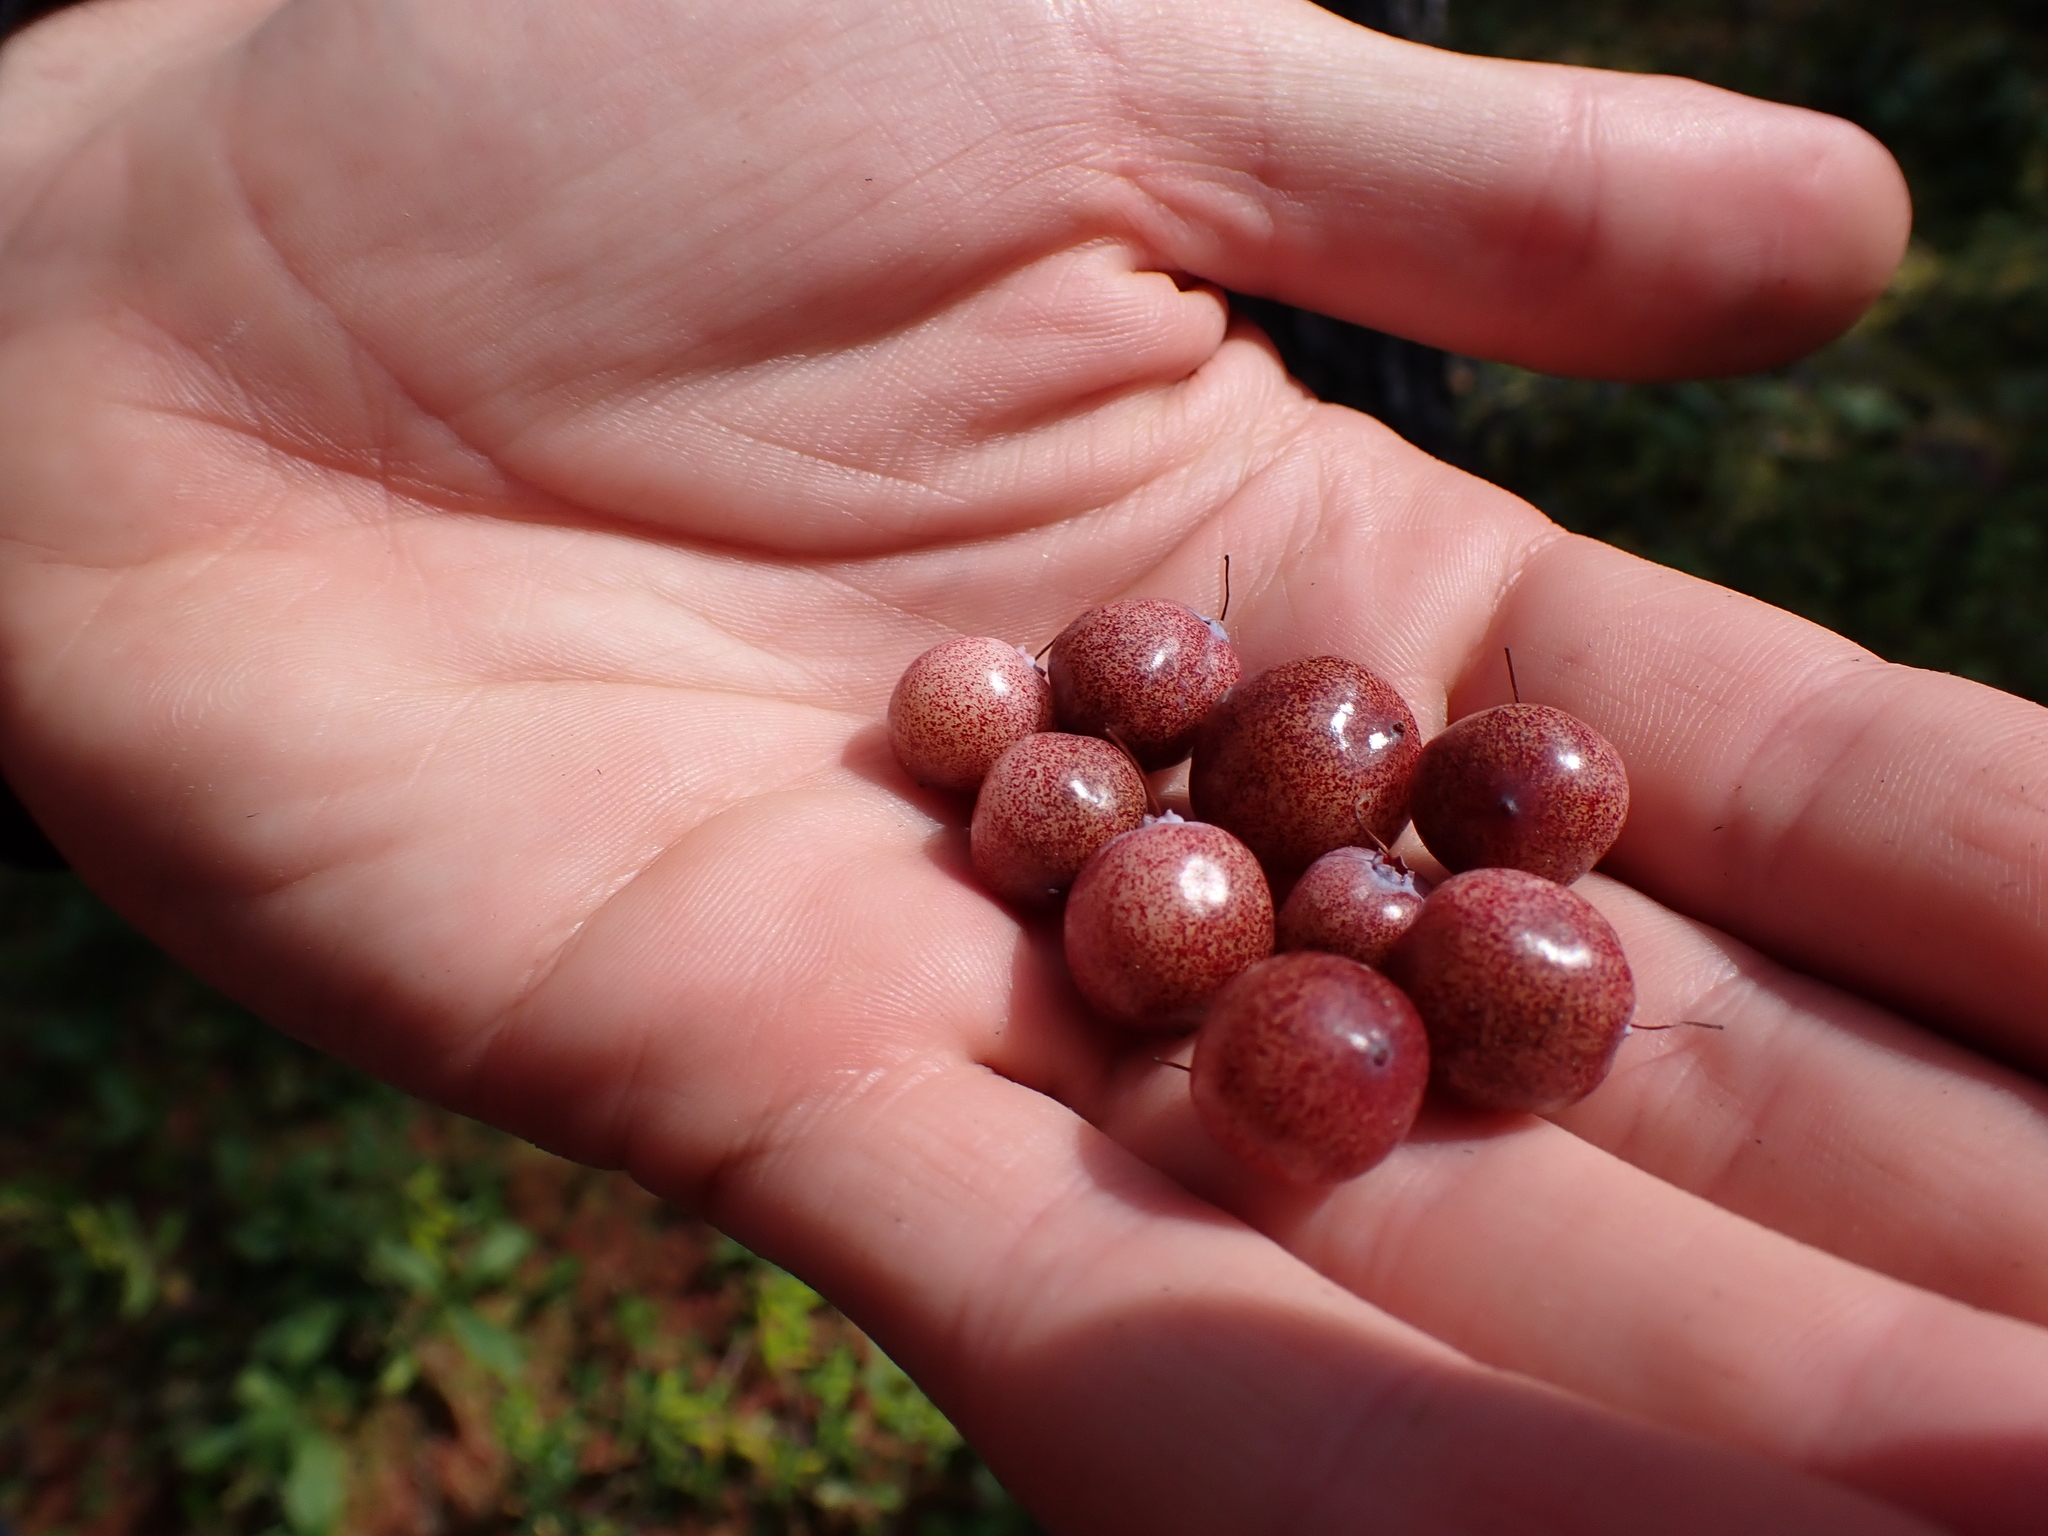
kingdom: Plantae
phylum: Tracheophyta
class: Magnoliopsida
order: Ericales
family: Ericaceae
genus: Vaccinium
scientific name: Vaccinium oxycoccos
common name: Cranberry
